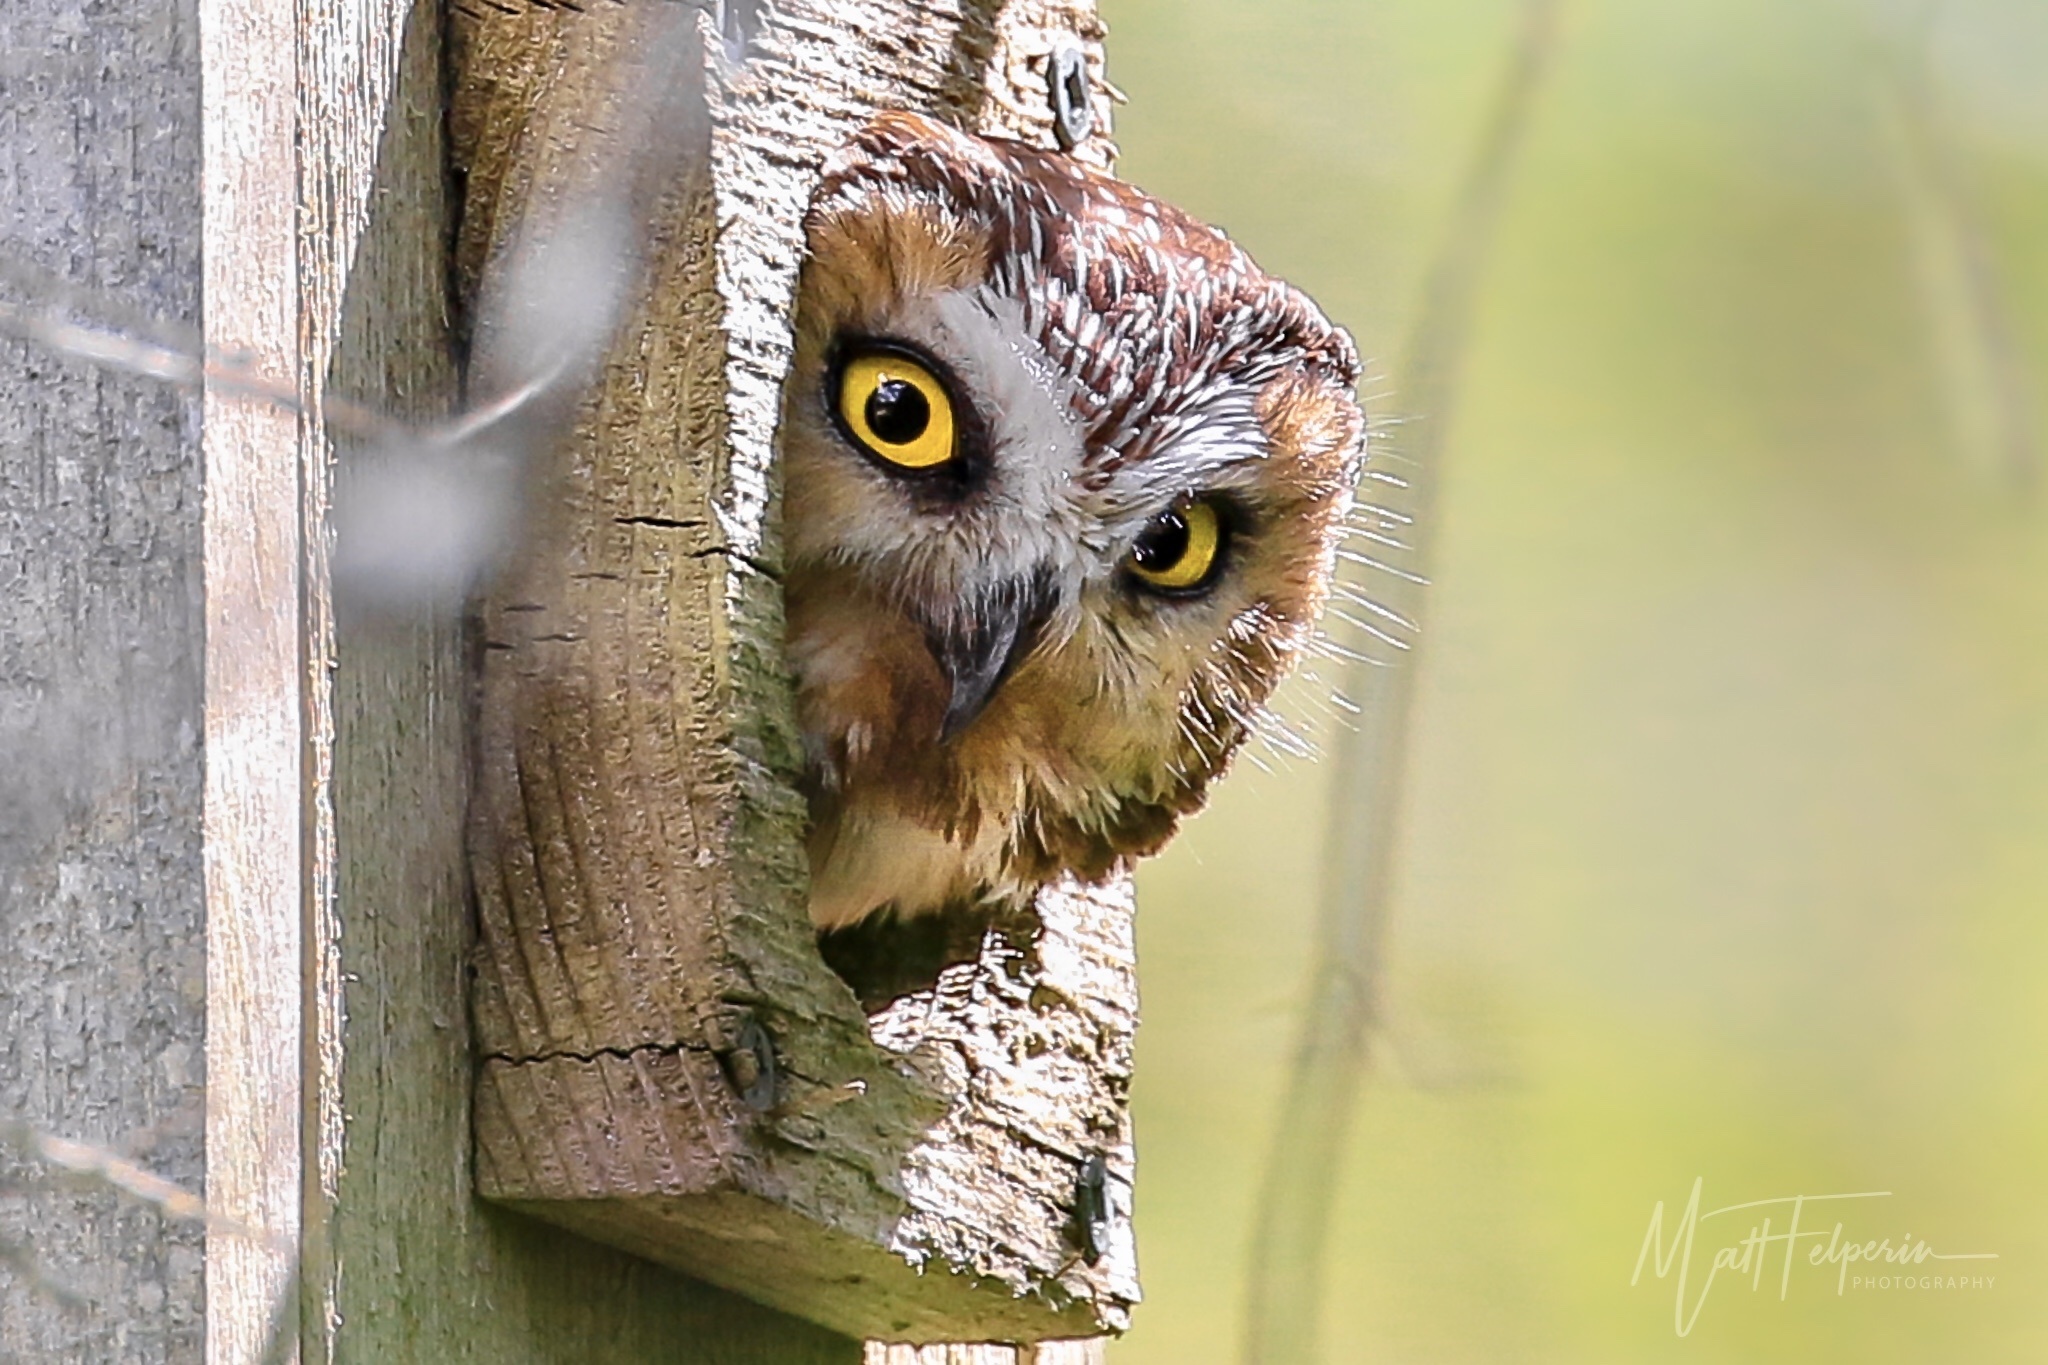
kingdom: Animalia
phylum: Chordata
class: Aves
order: Strigiformes
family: Strigidae
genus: Aegolius
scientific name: Aegolius acadicus
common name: Northern saw-whet owl
